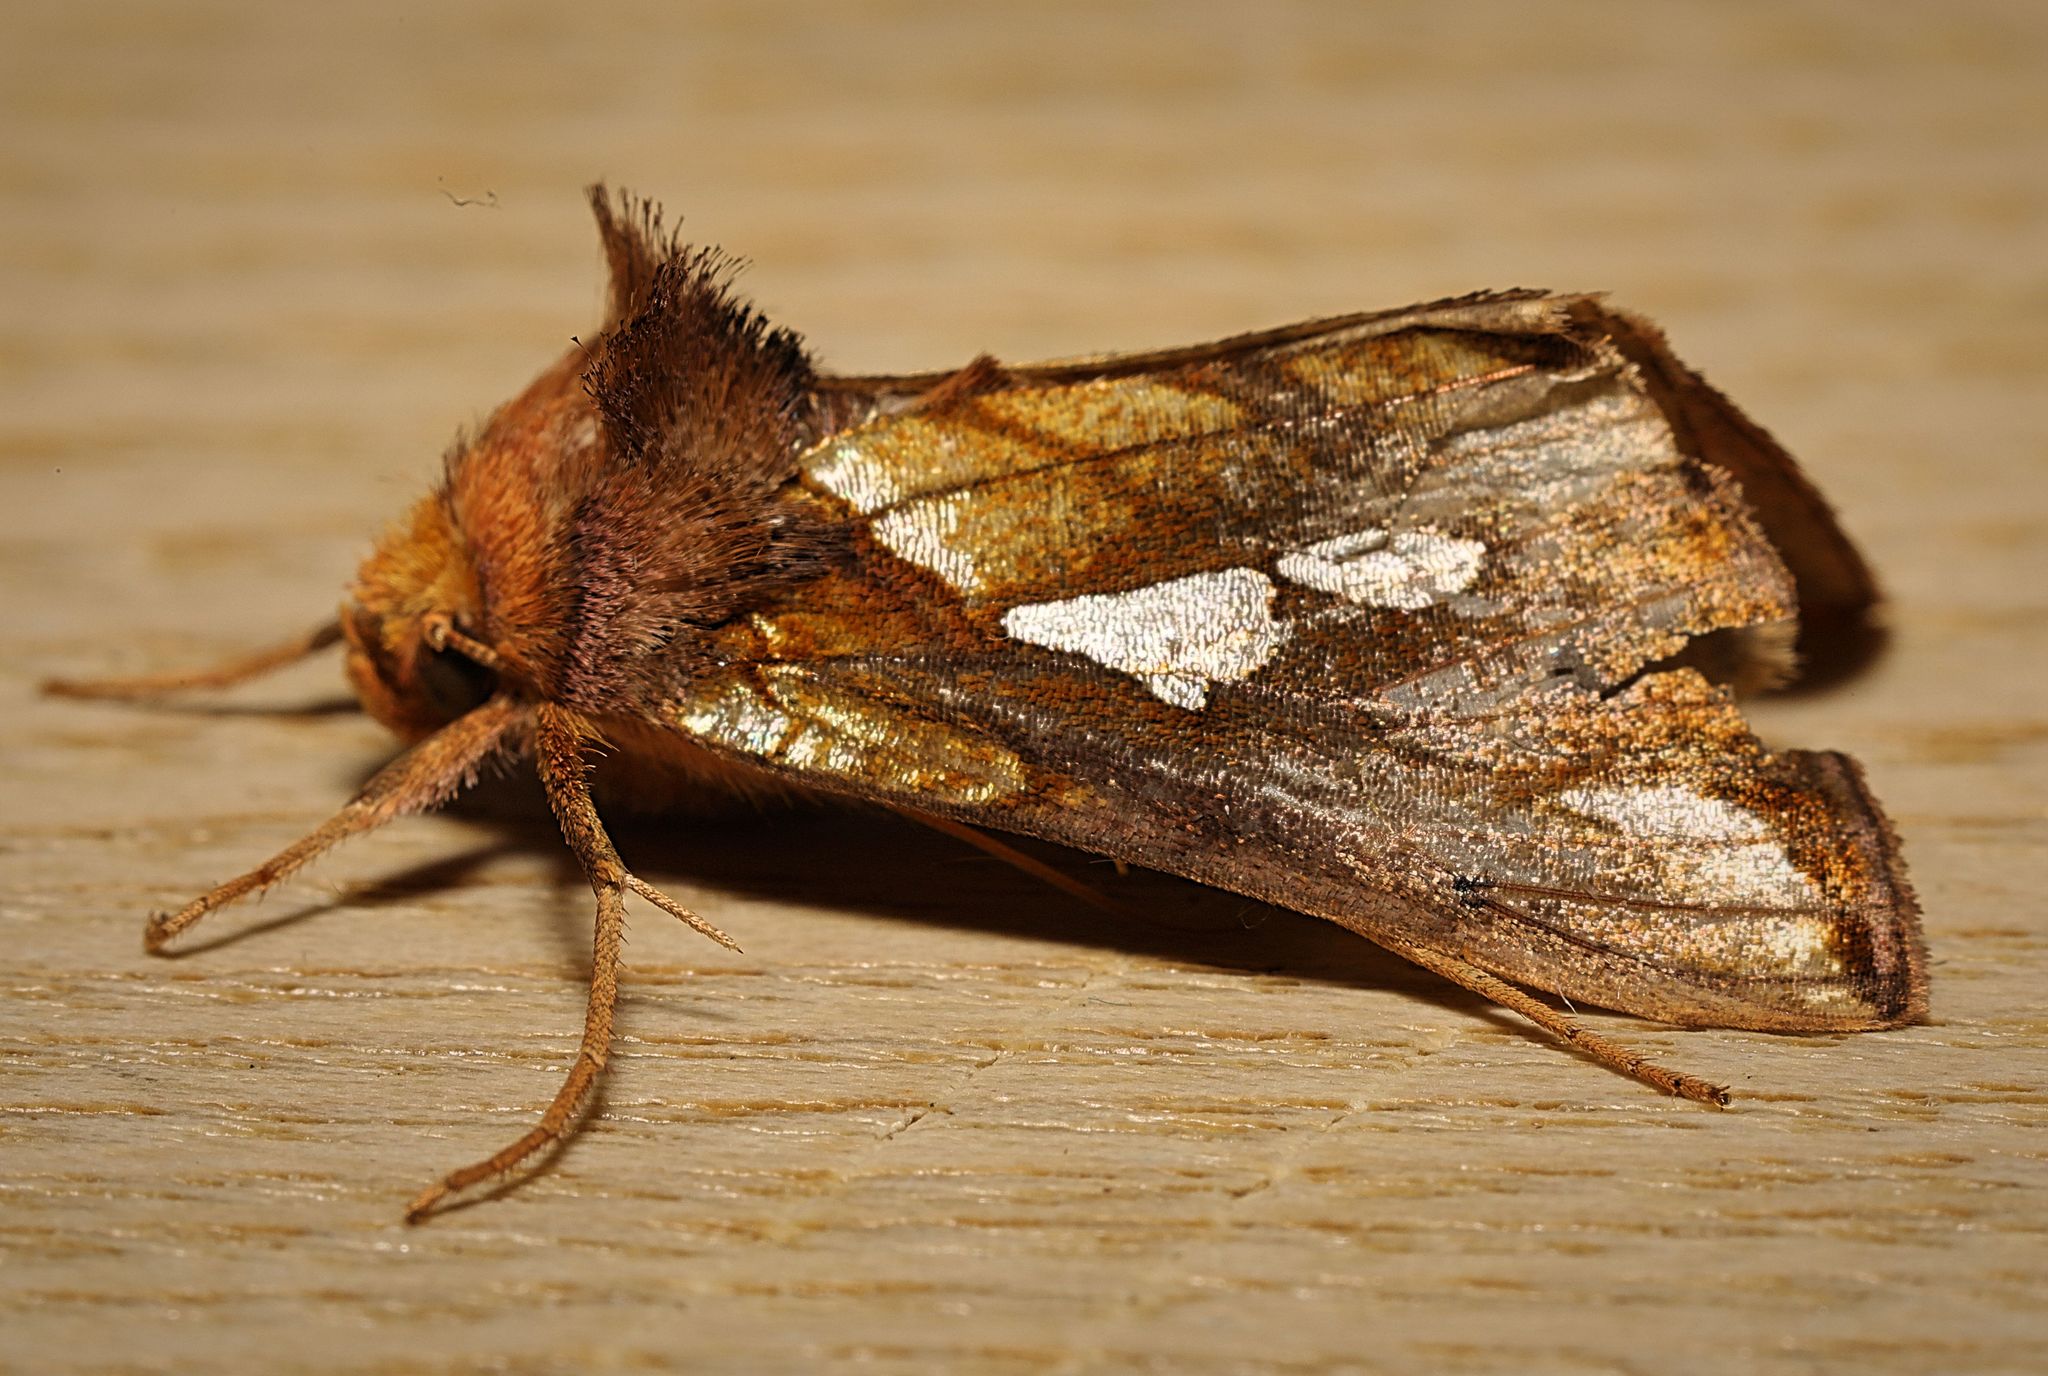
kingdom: Animalia
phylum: Arthropoda
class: Insecta
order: Lepidoptera
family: Noctuidae
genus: Plusia
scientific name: Plusia festucae
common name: Gold spot
